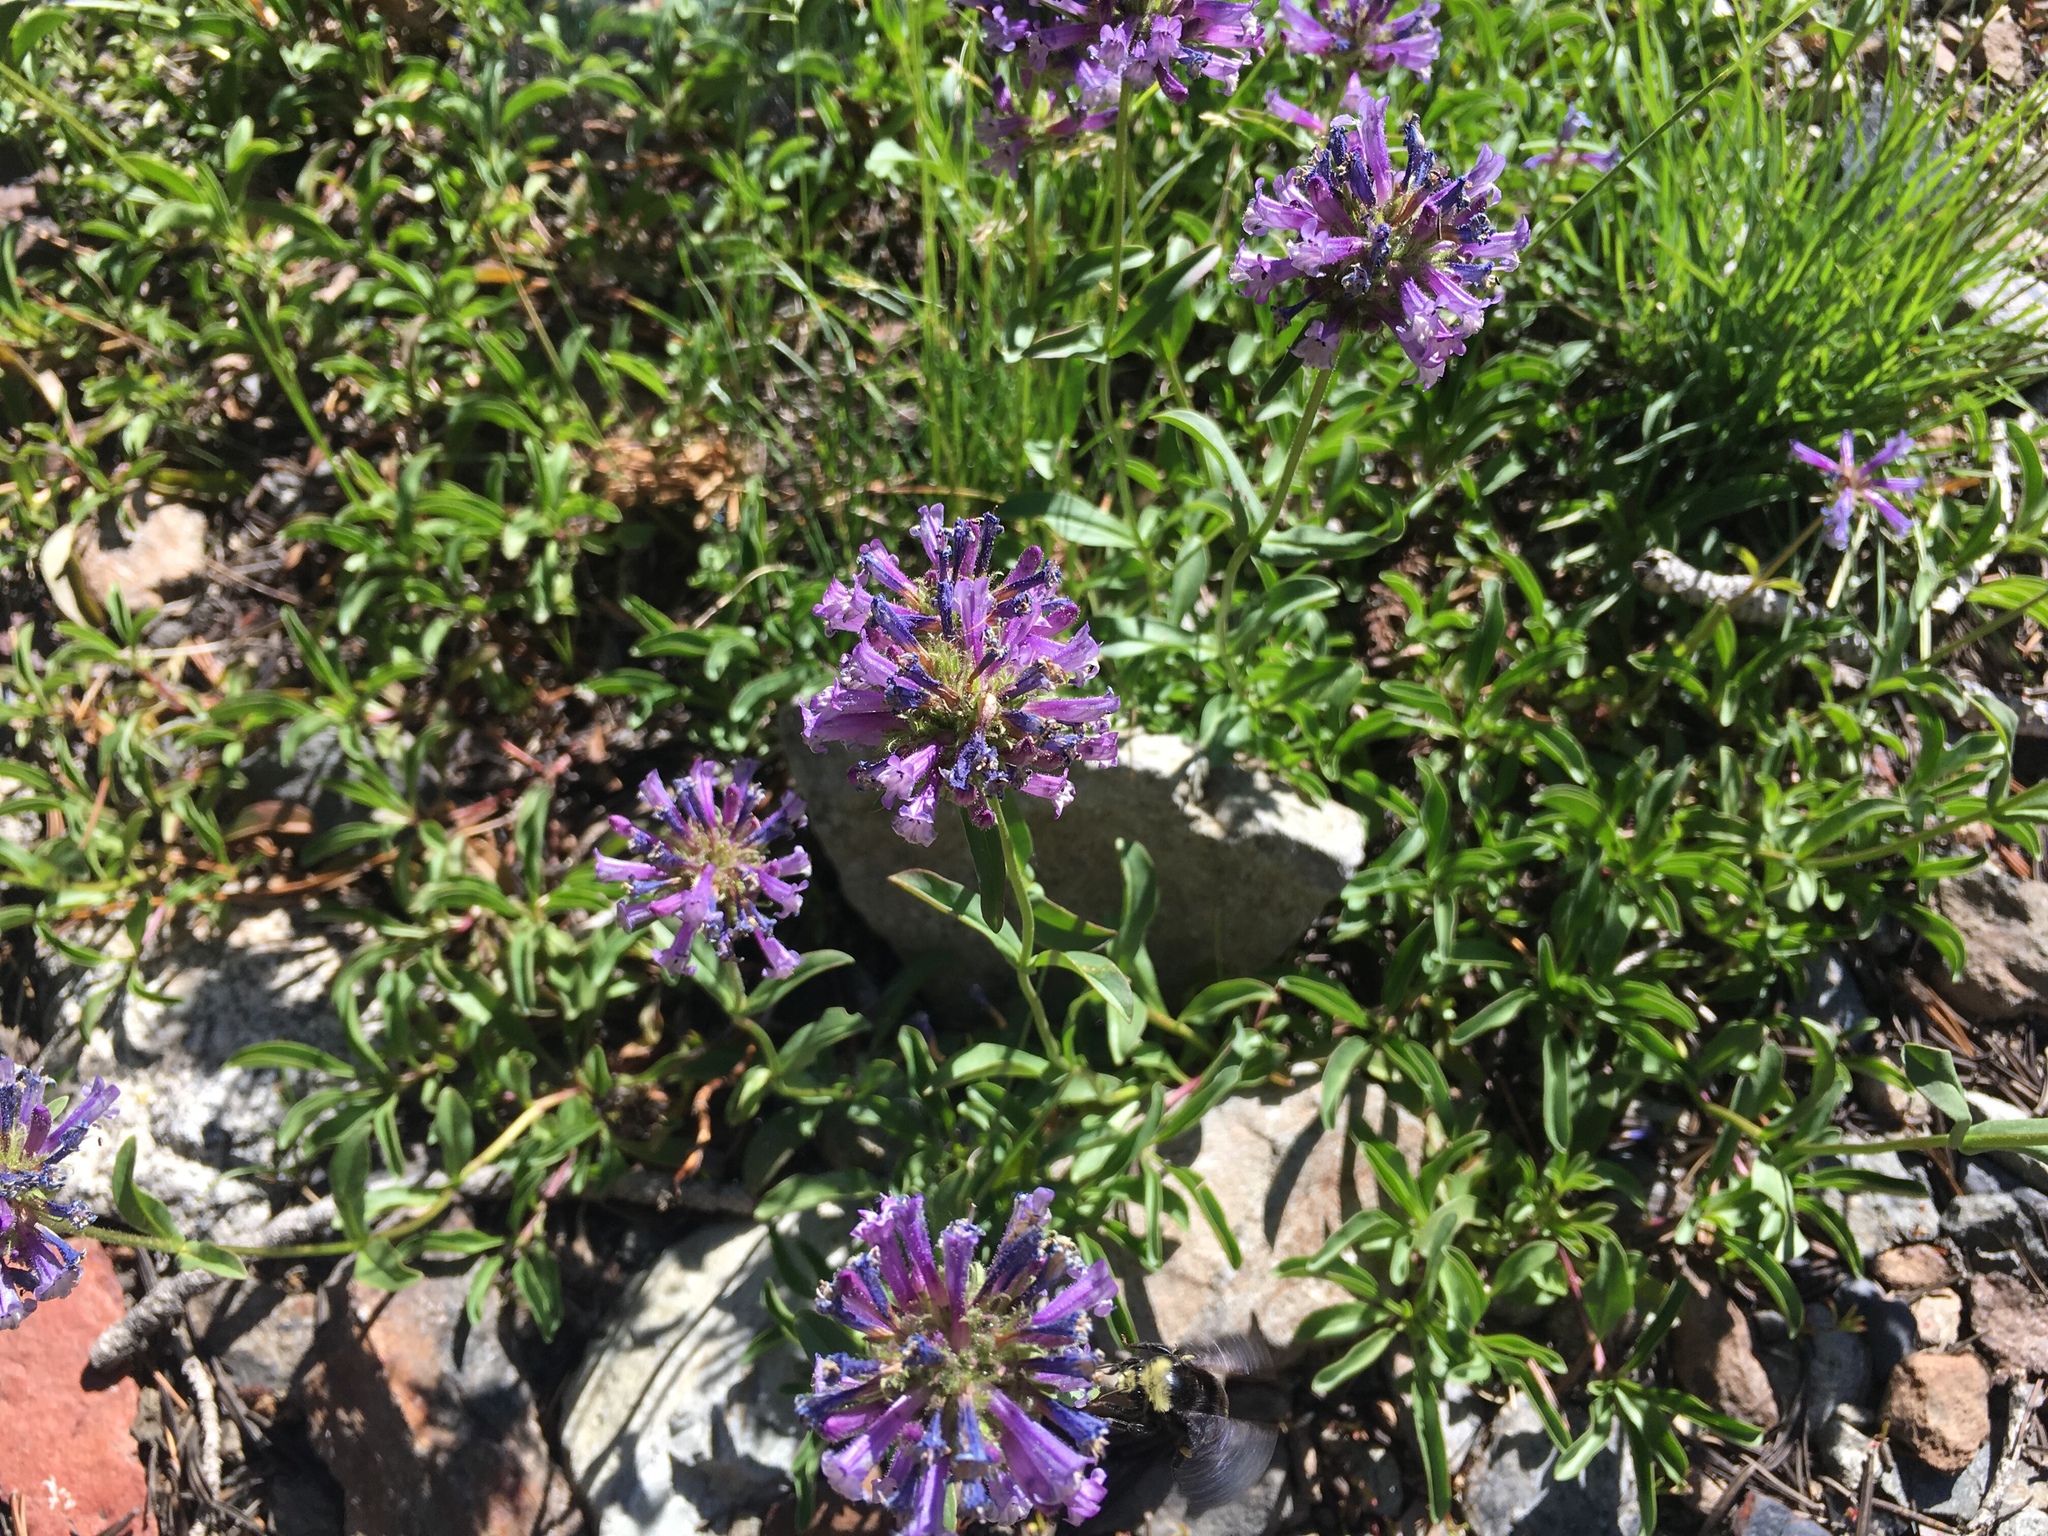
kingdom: Plantae
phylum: Tracheophyta
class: Magnoliopsida
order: Lamiales
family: Plantaginaceae
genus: Penstemon
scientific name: Penstemon heterodoxus
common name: Sierran penstemon
